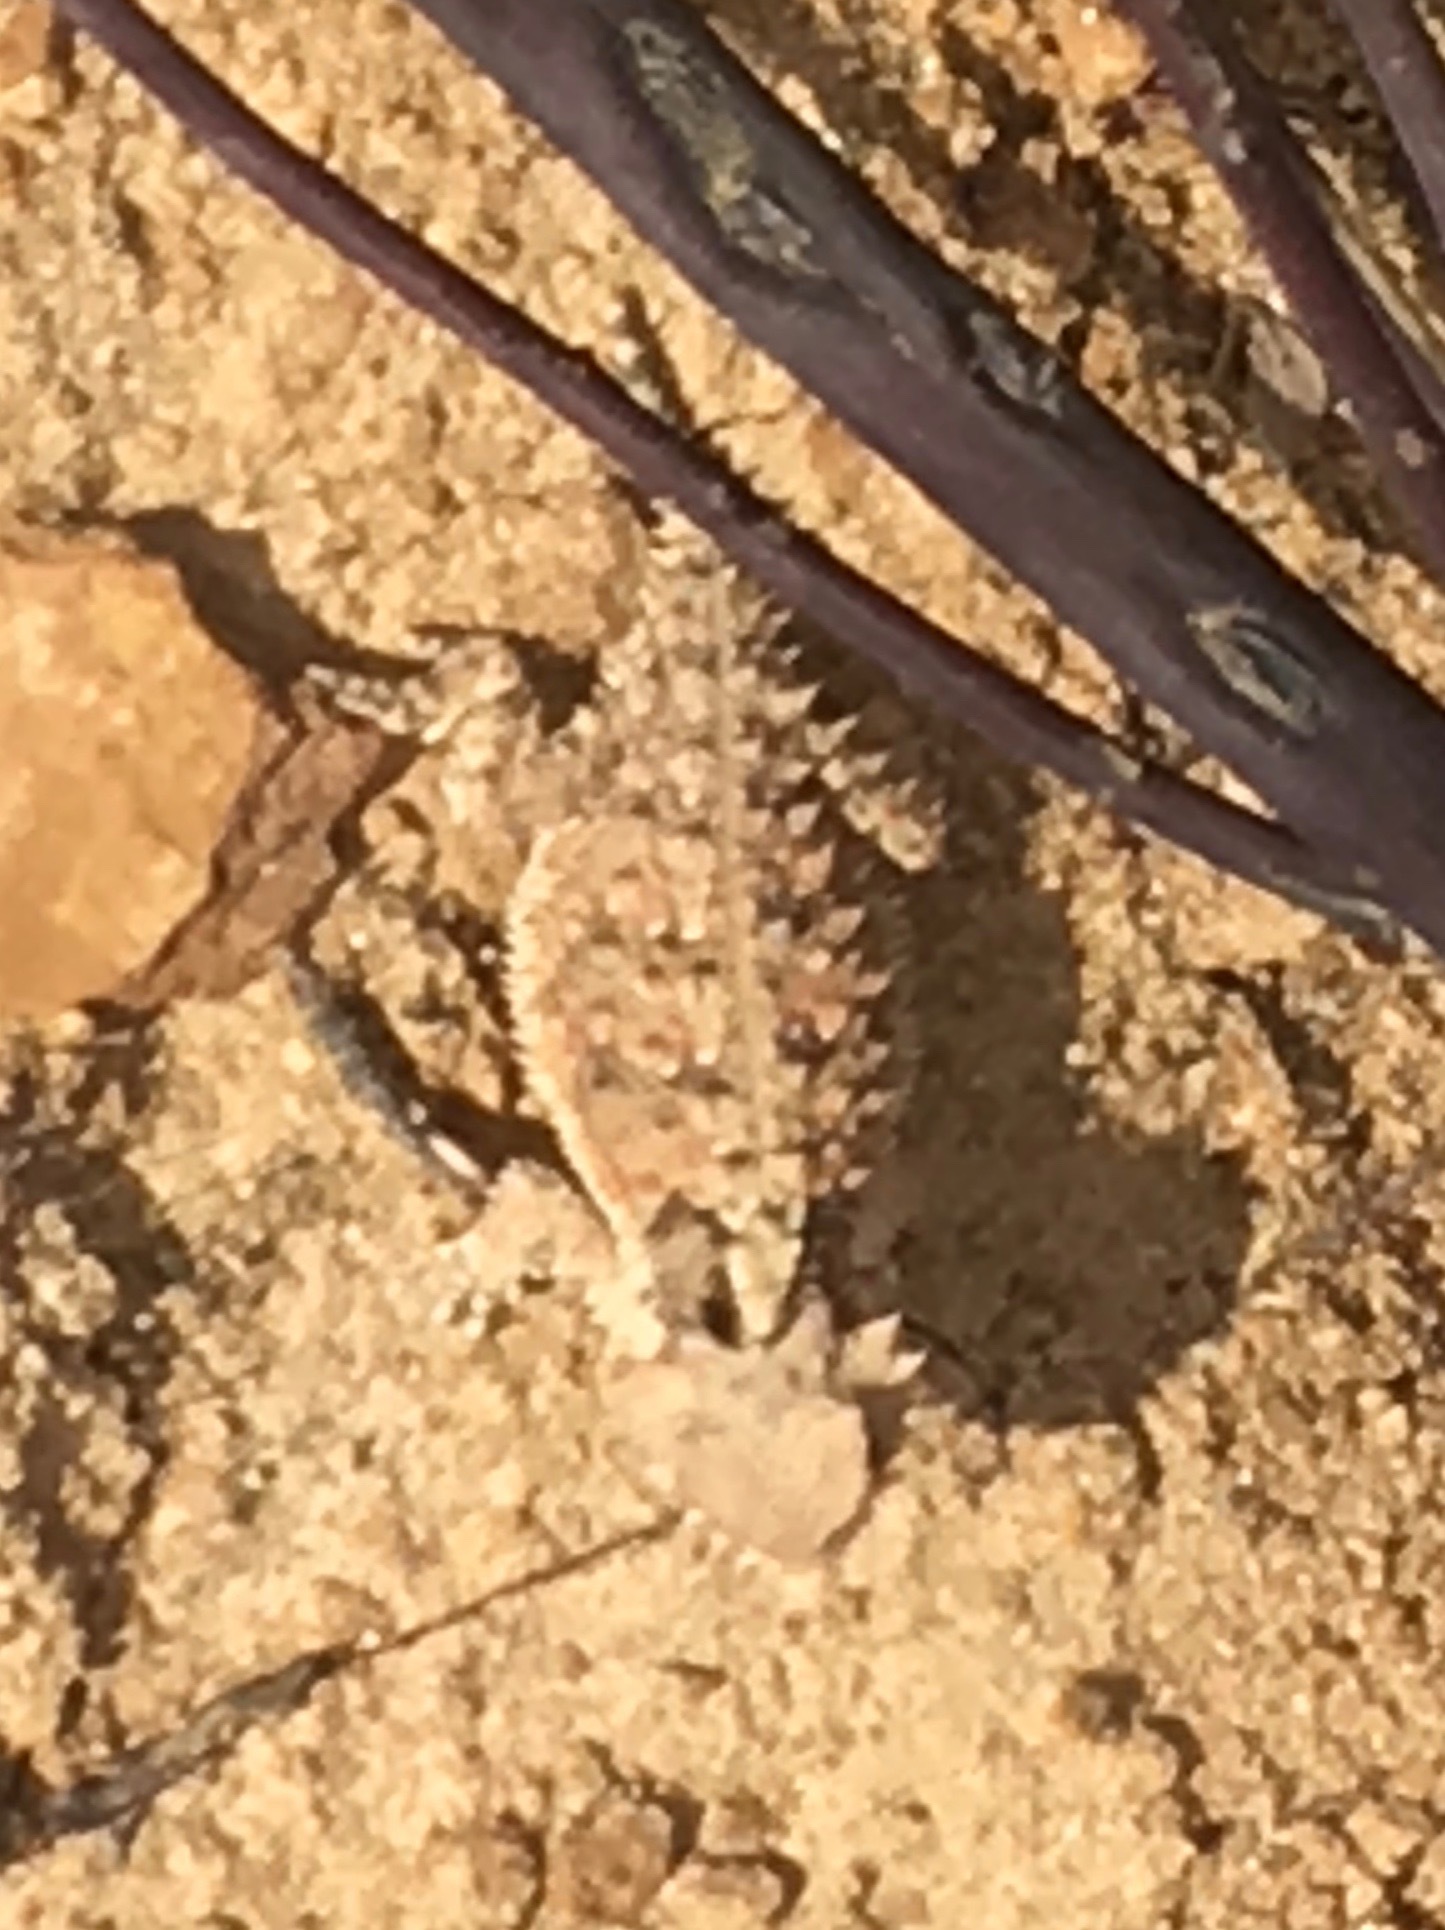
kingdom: Animalia
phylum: Chordata
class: Squamata
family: Phrynosomatidae
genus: Phrynosoma
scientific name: Phrynosoma blainvillii
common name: San diego horned lizard
